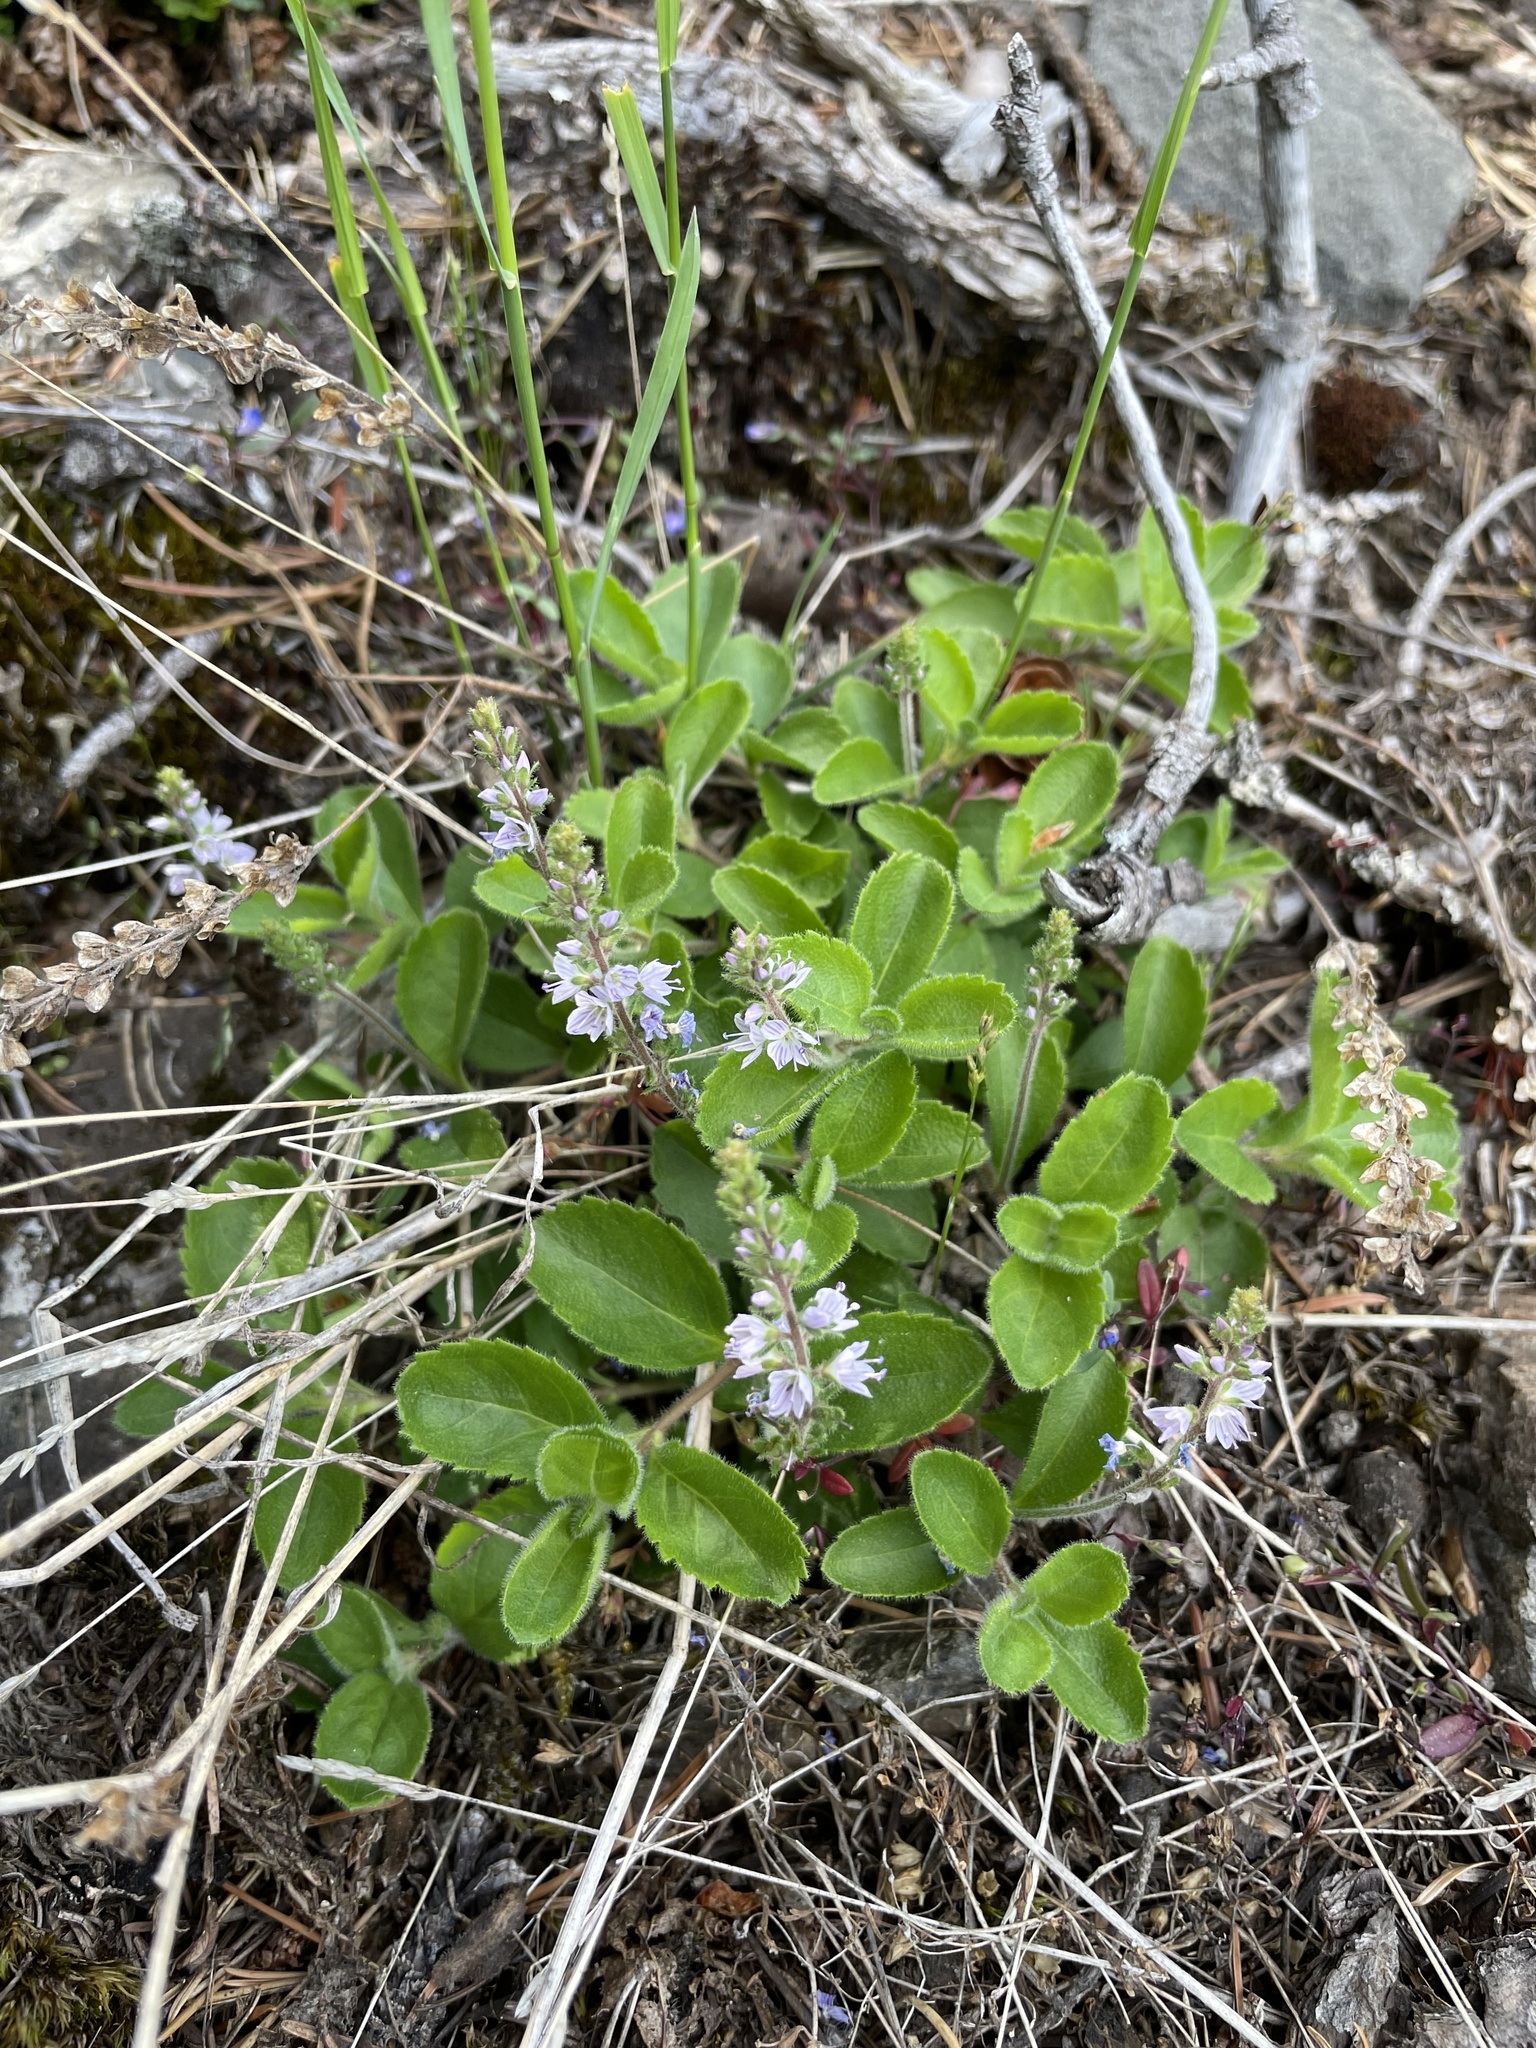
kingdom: Plantae
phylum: Tracheophyta
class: Magnoliopsida
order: Lamiales
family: Plantaginaceae
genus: Veronica
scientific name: Veronica officinalis
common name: Common speedwell
